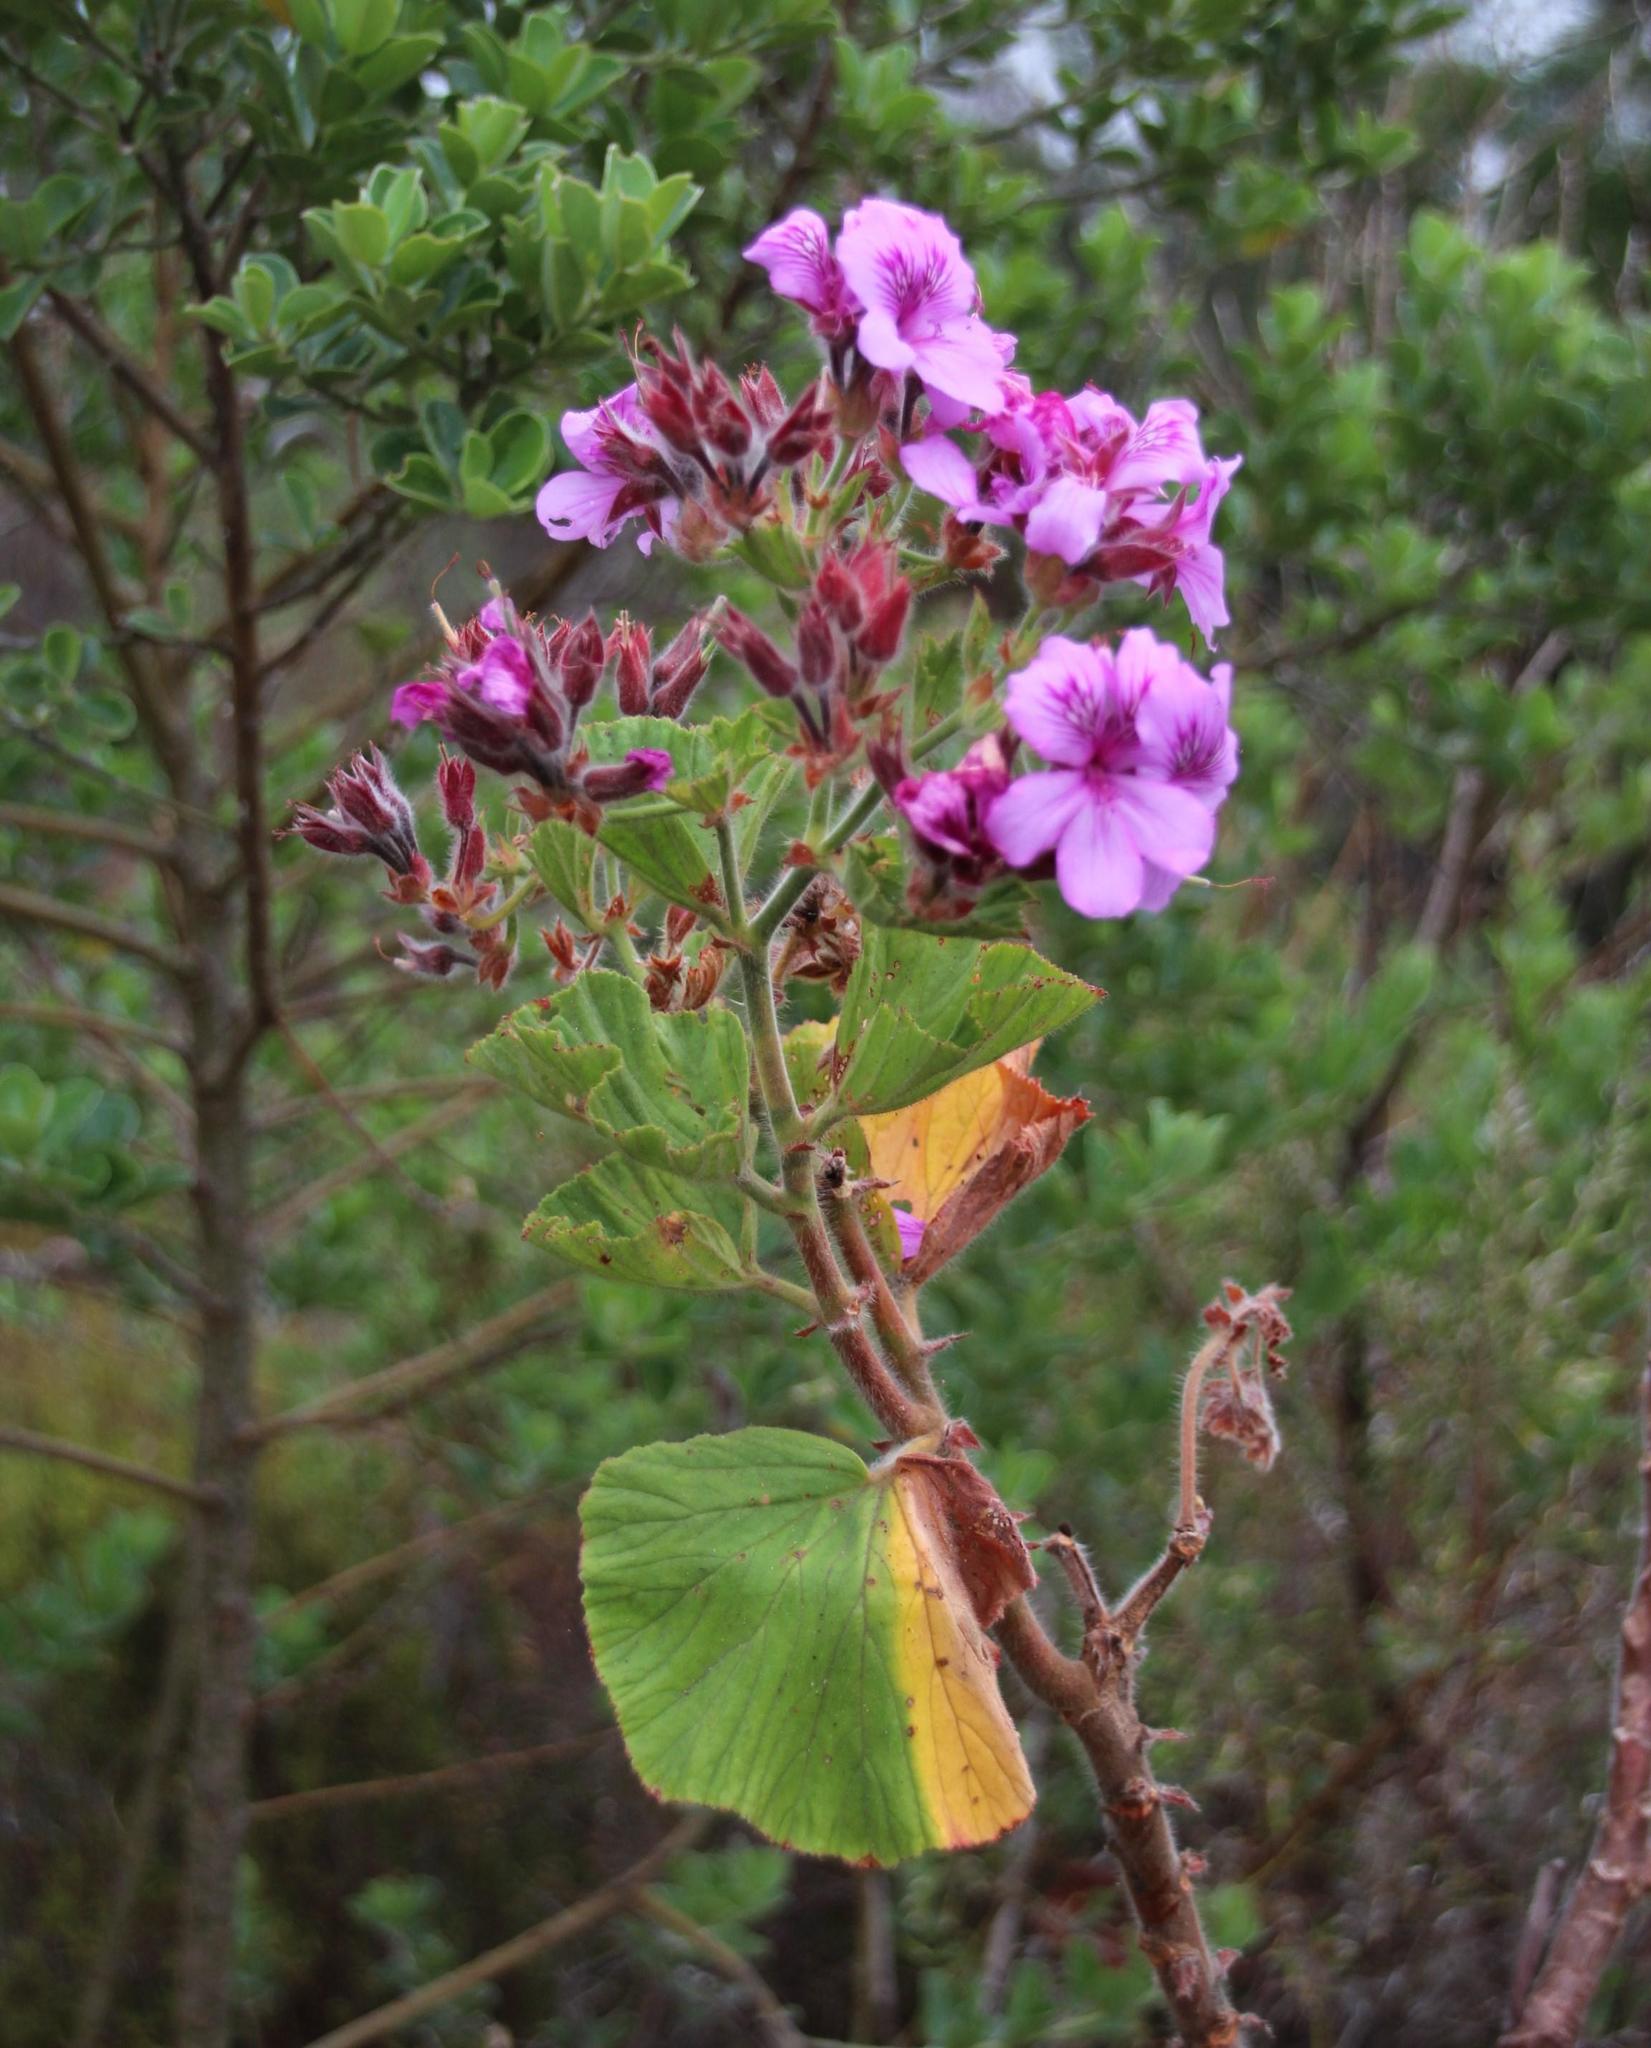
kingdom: Plantae
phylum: Tracheophyta
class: Magnoliopsida
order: Geraniales
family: Geraniaceae
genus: Pelargonium
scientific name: Pelargonium cucullatum
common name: Tree pelargonium
